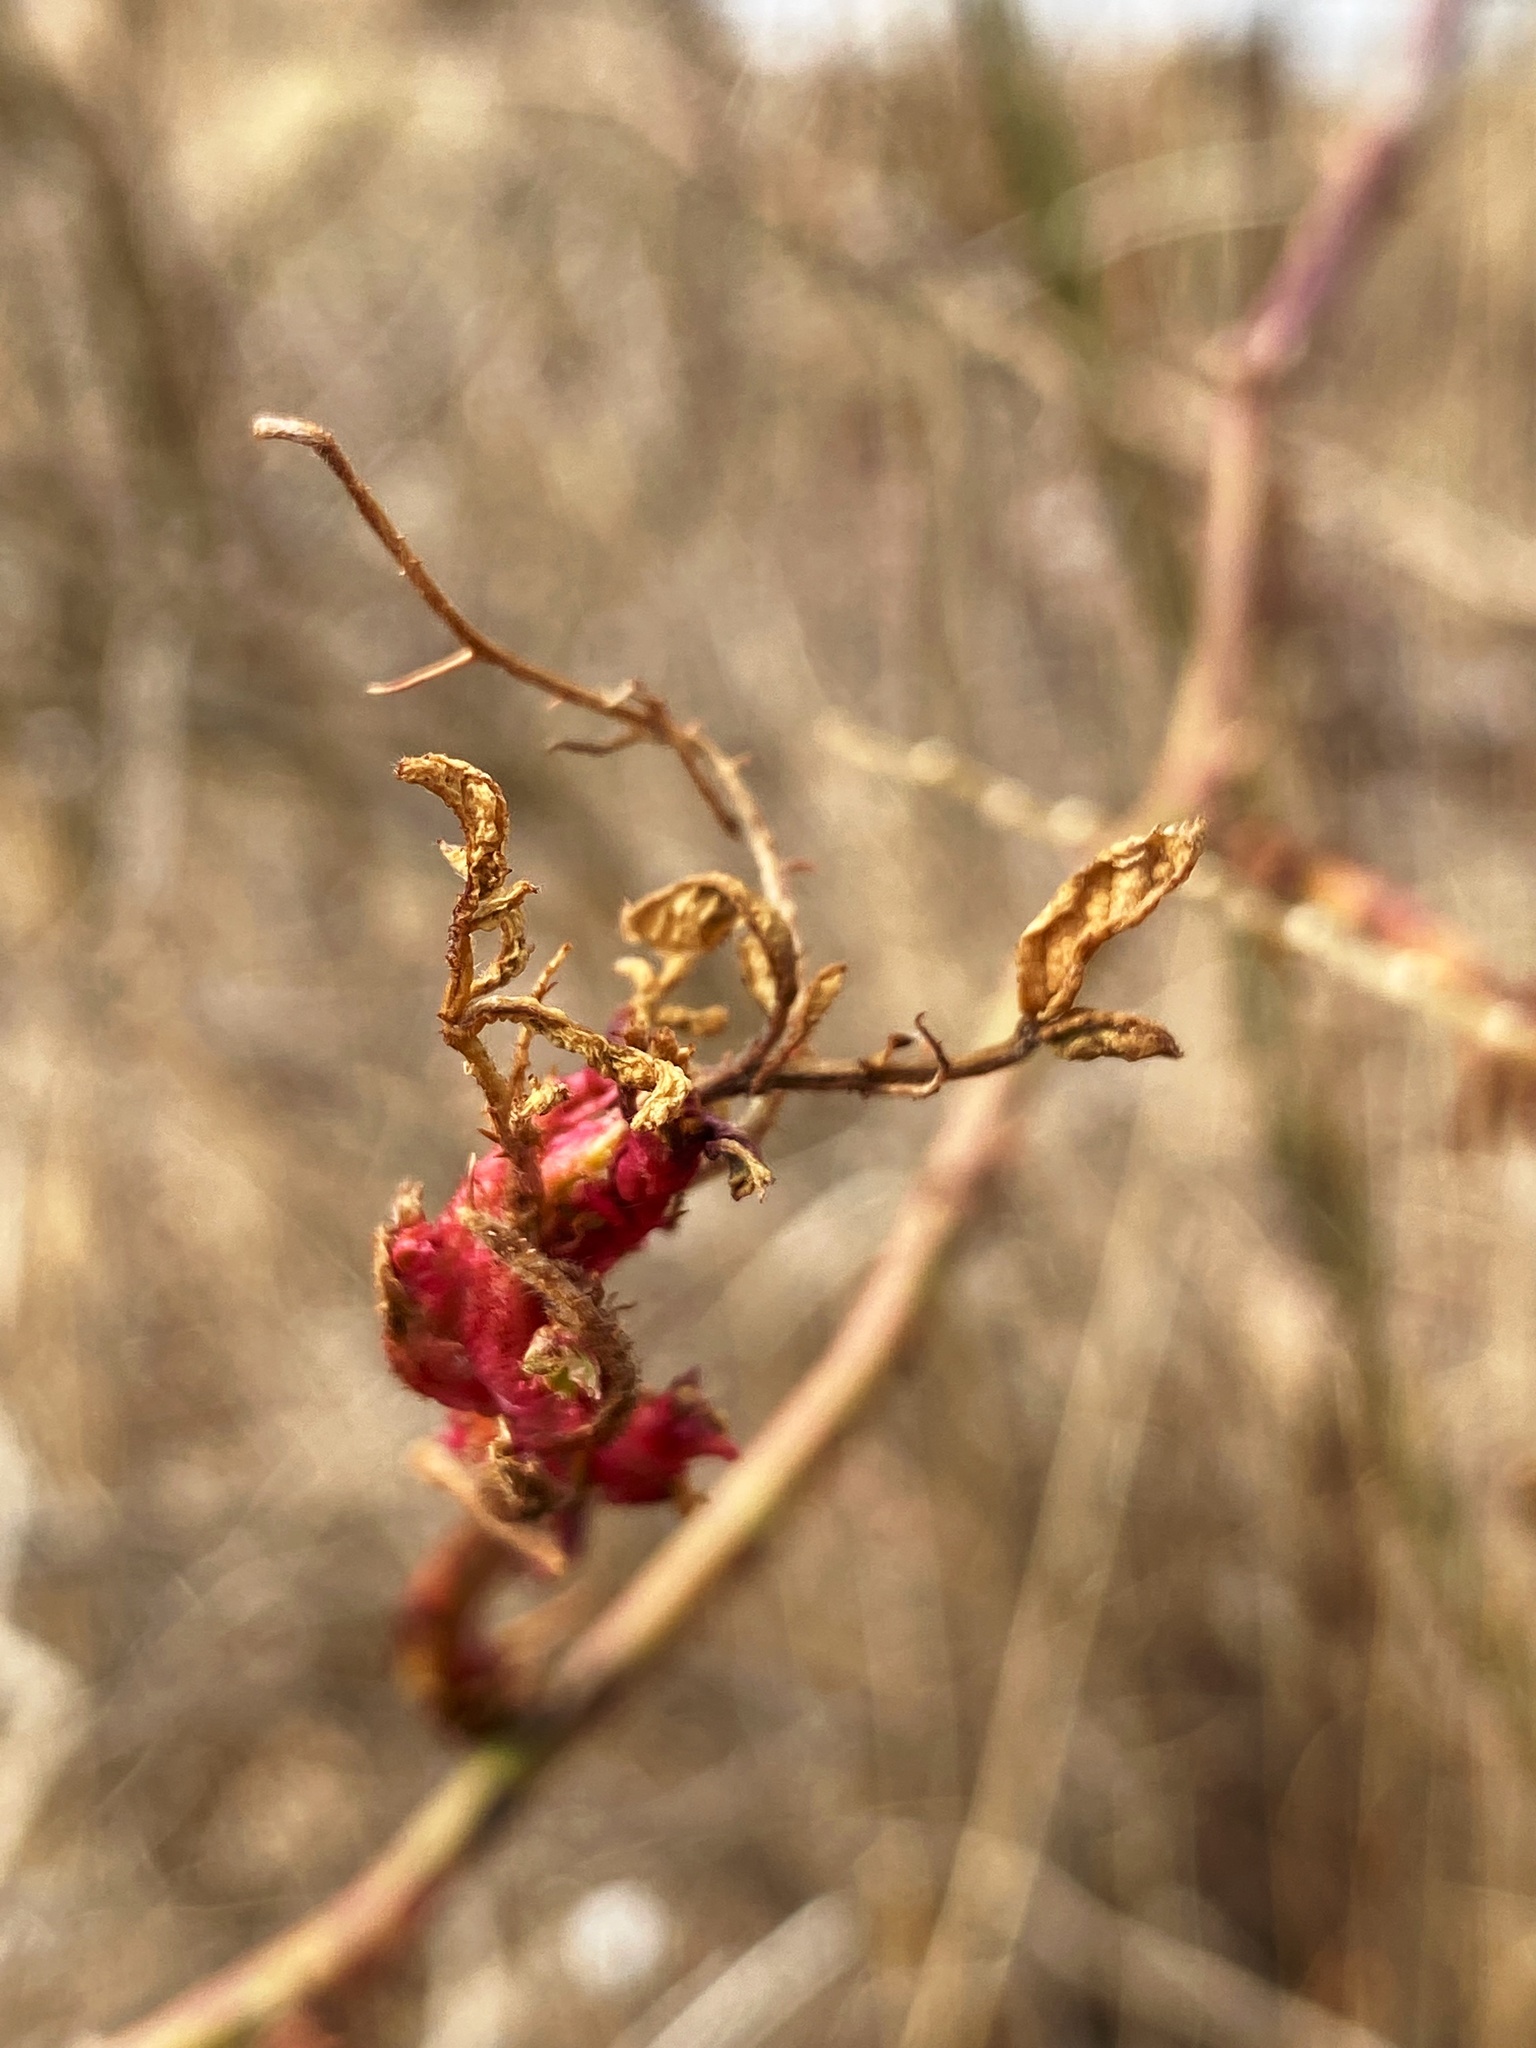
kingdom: Viruses
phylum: Negarnaviricota
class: Ellioviricetes
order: Bunyavirales
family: Fimoviridae
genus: Emaravirus
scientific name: Emaravirus rosae
